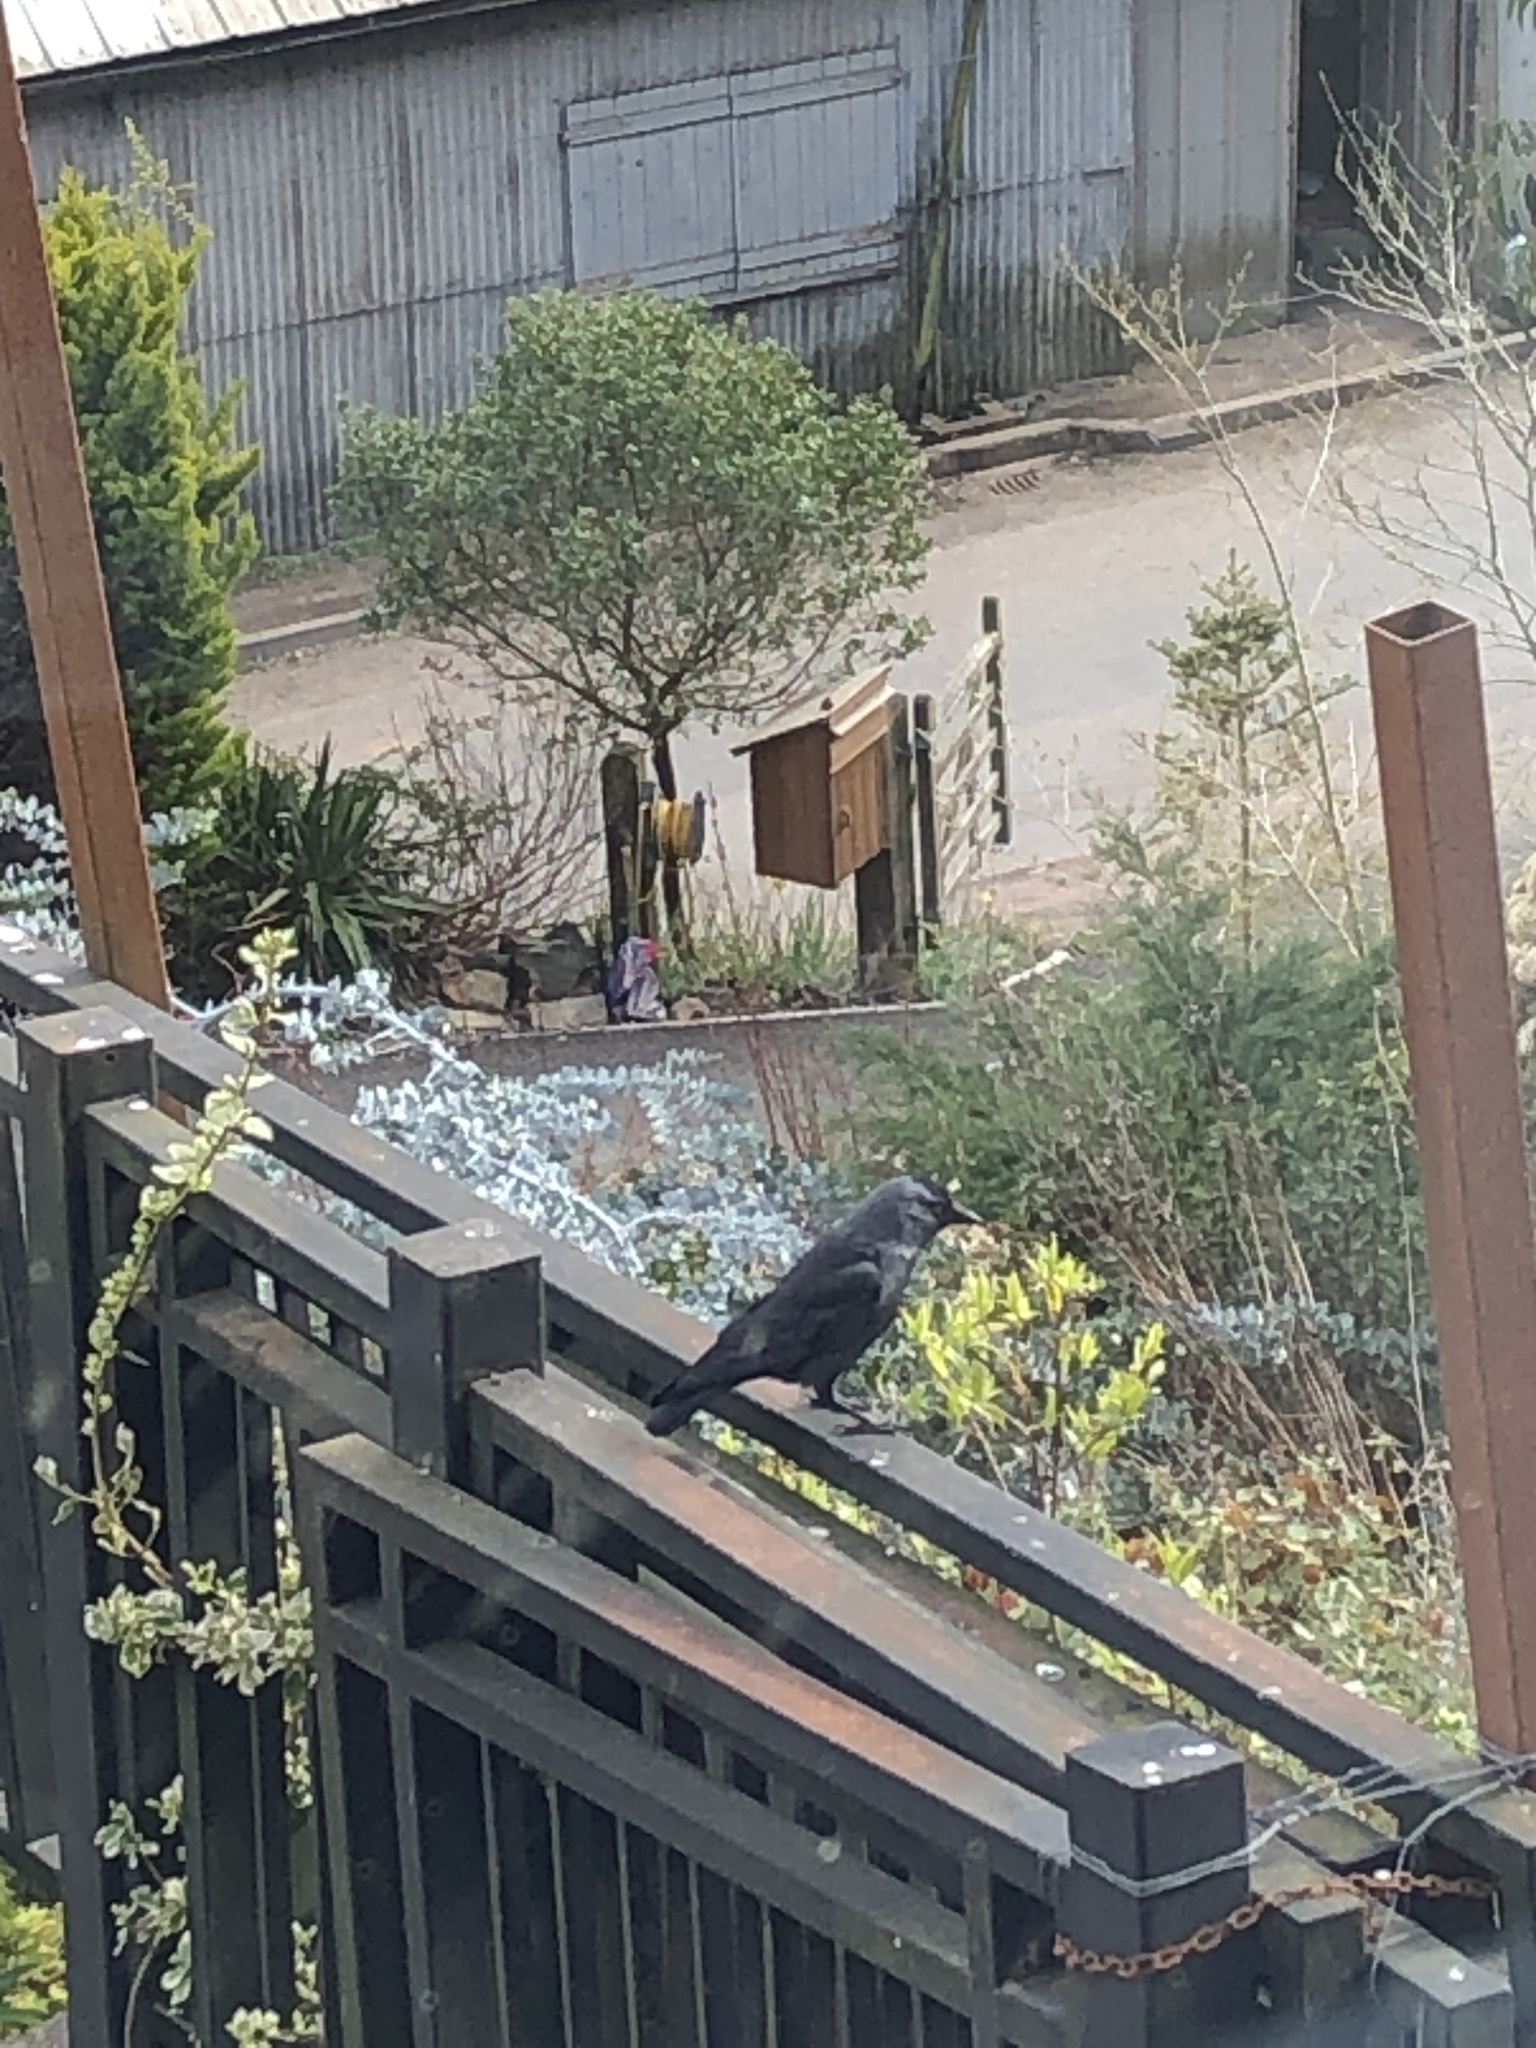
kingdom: Animalia
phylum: Chordata
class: Aves
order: Passeriformes
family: Corvidae
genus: Coloeus
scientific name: Coloeus monedula
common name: Western jackdaw
